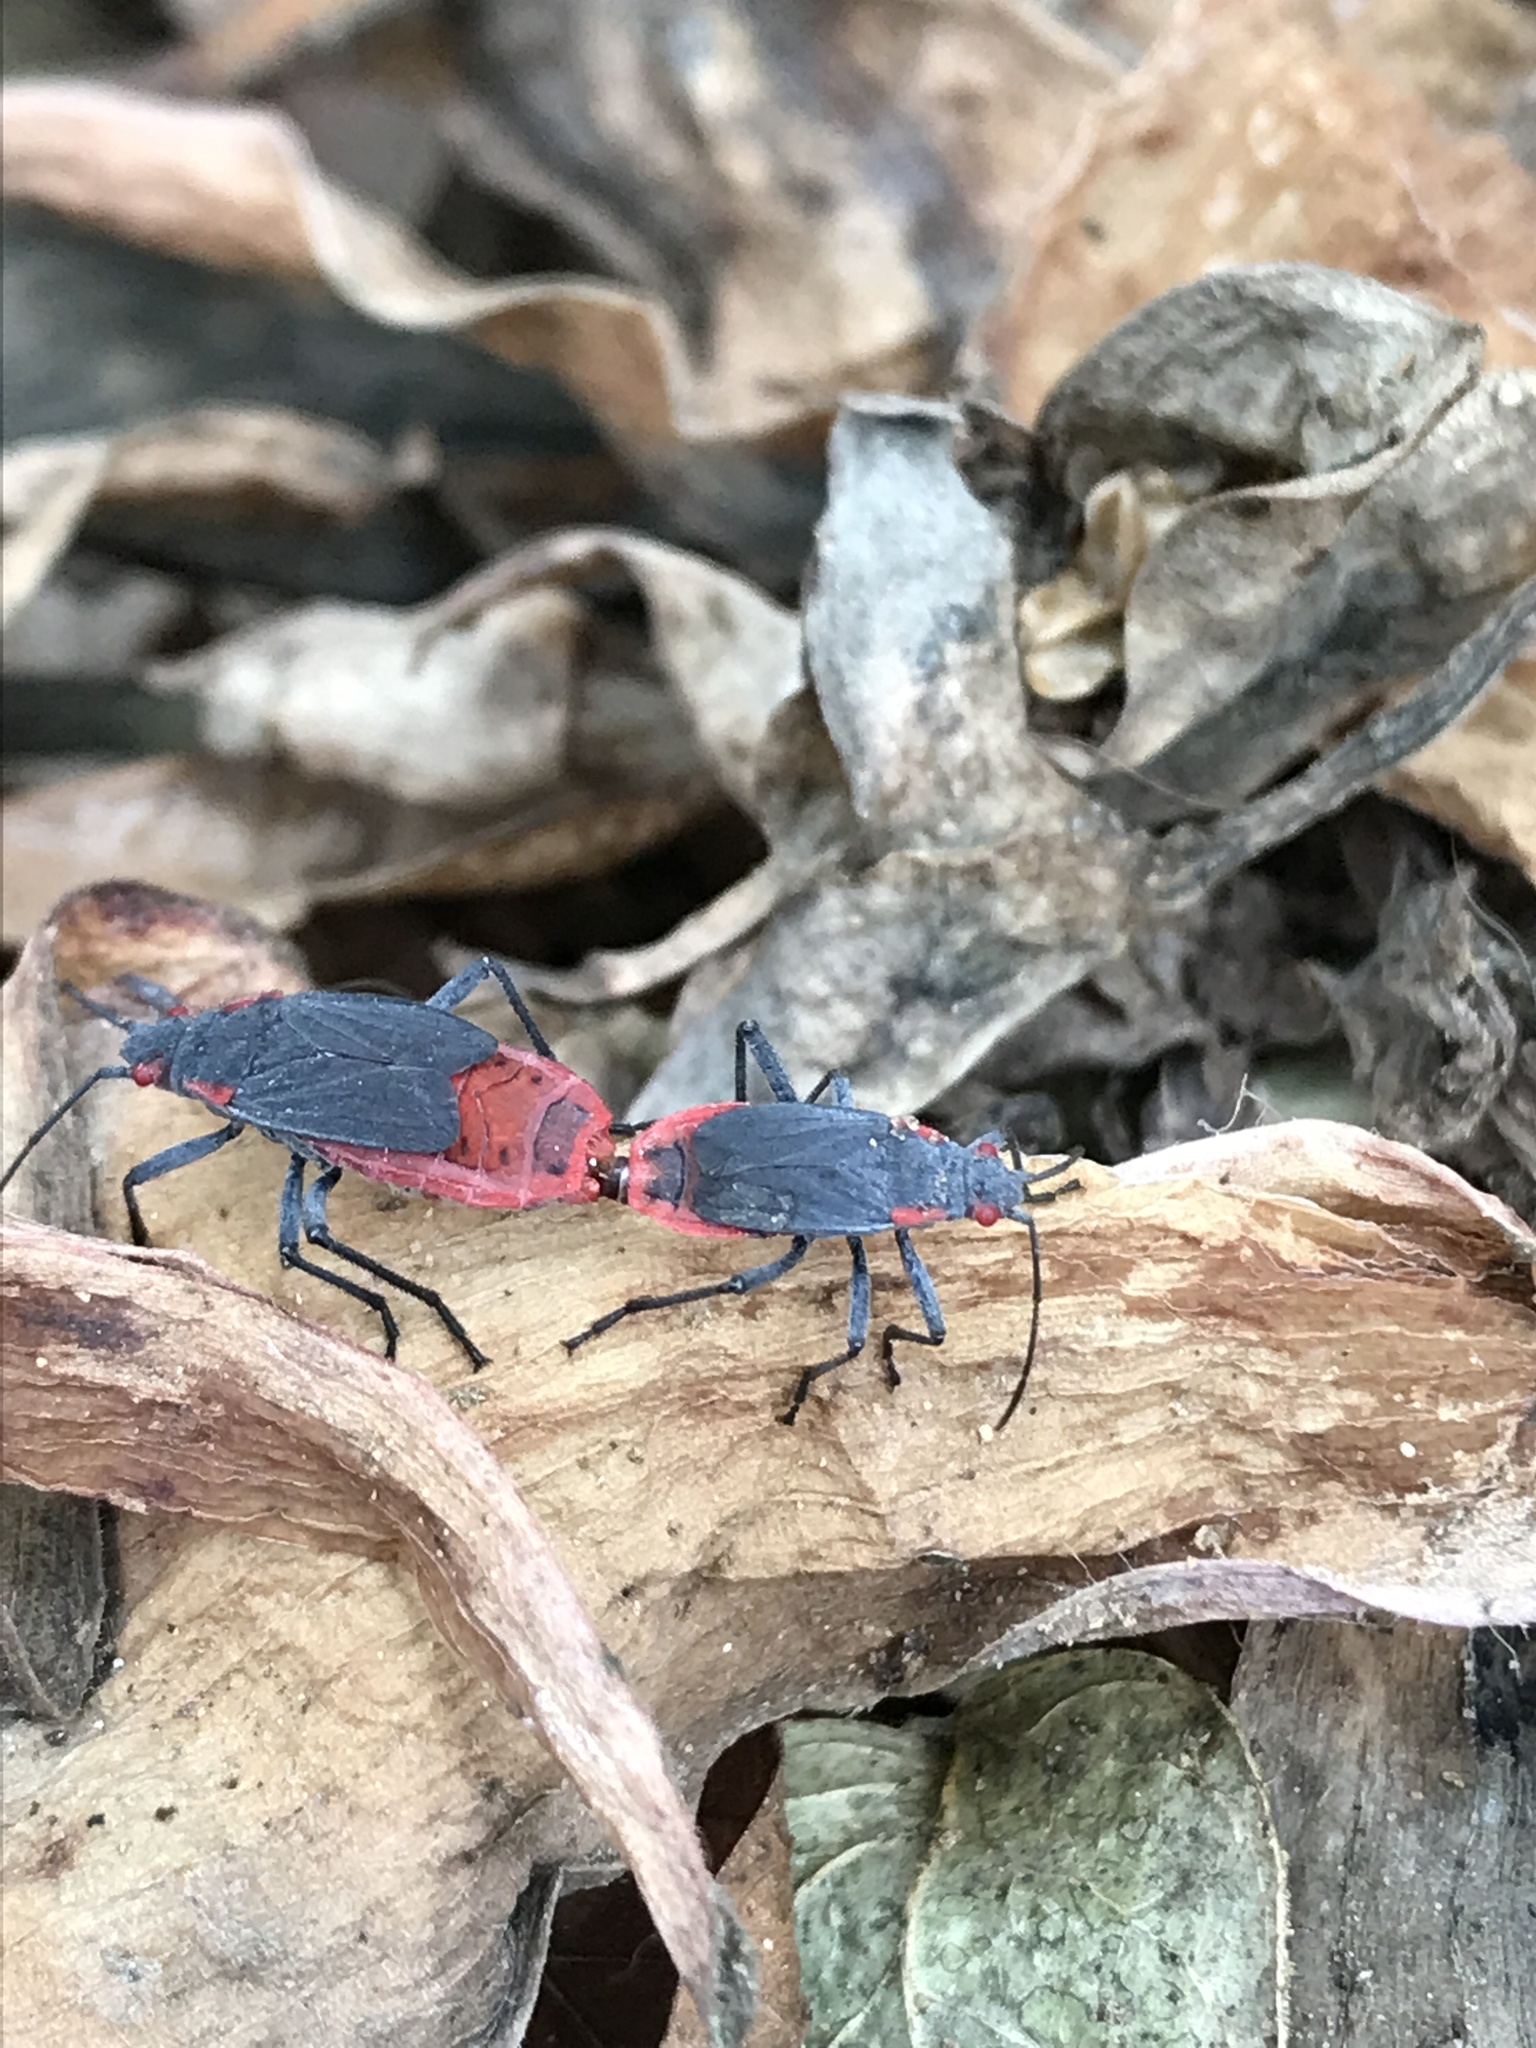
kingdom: Animalia
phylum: Arthropoda
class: Insecta
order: Hemiptera
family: Rhopalidae
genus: Jadera
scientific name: Jadera haematoloma
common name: Red-shouldered bug
